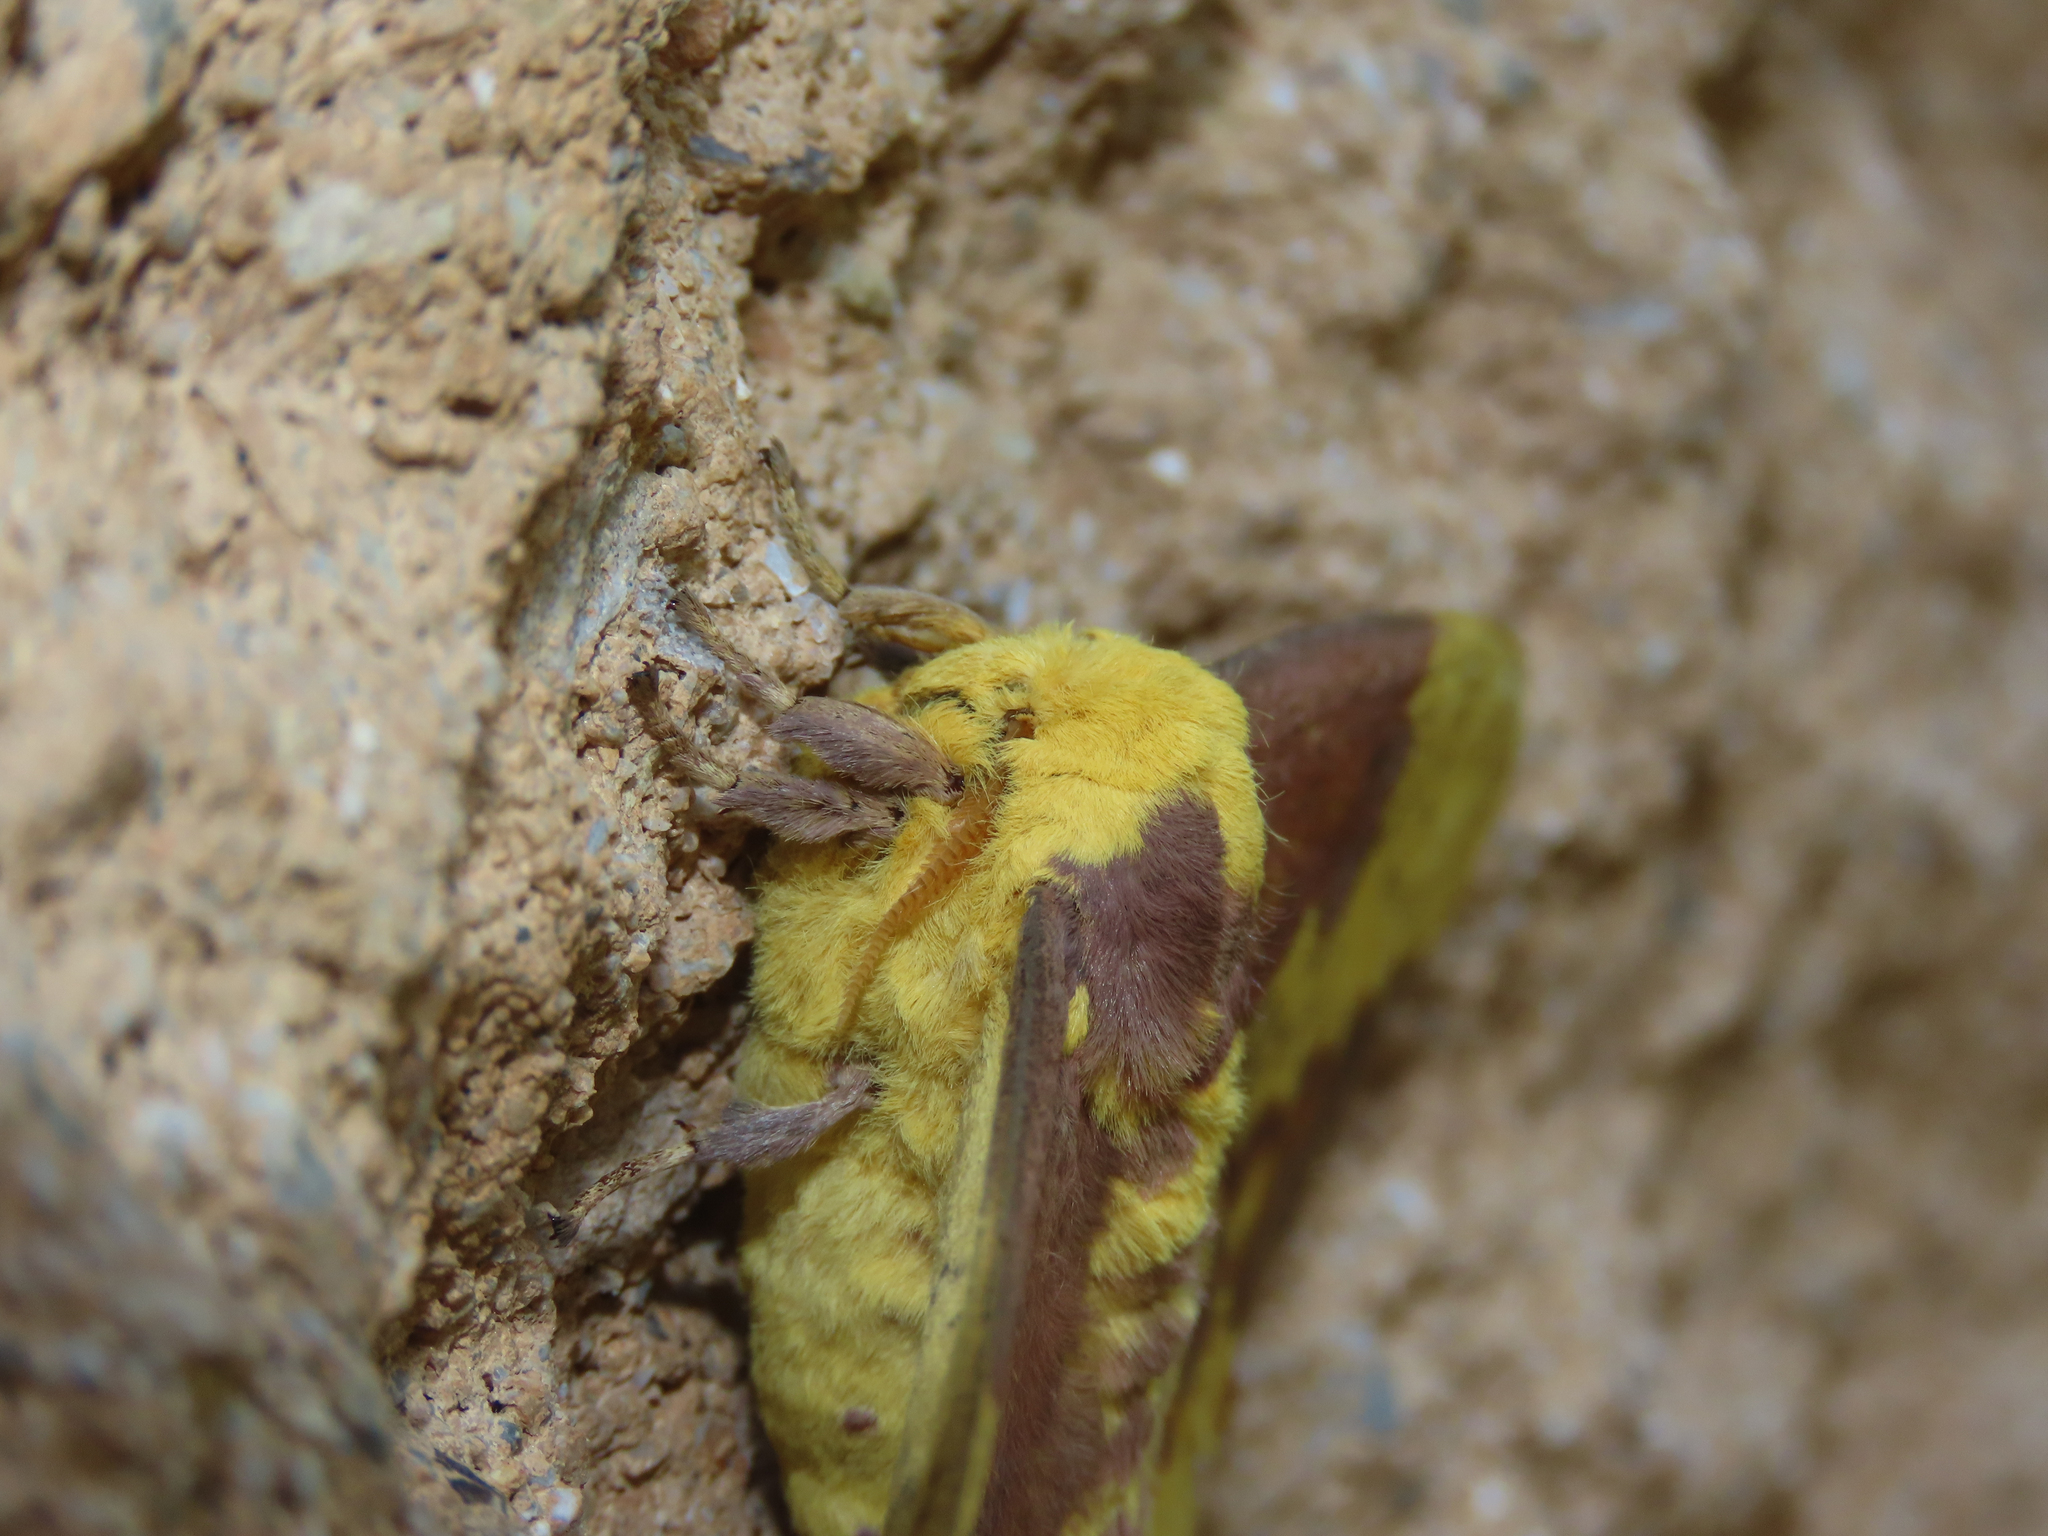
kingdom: Animalia
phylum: Arthropoda
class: Insecta
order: Lepidoptera
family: Saturniidae
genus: Eacles
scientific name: Eacles imperialis
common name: Imperial moth
